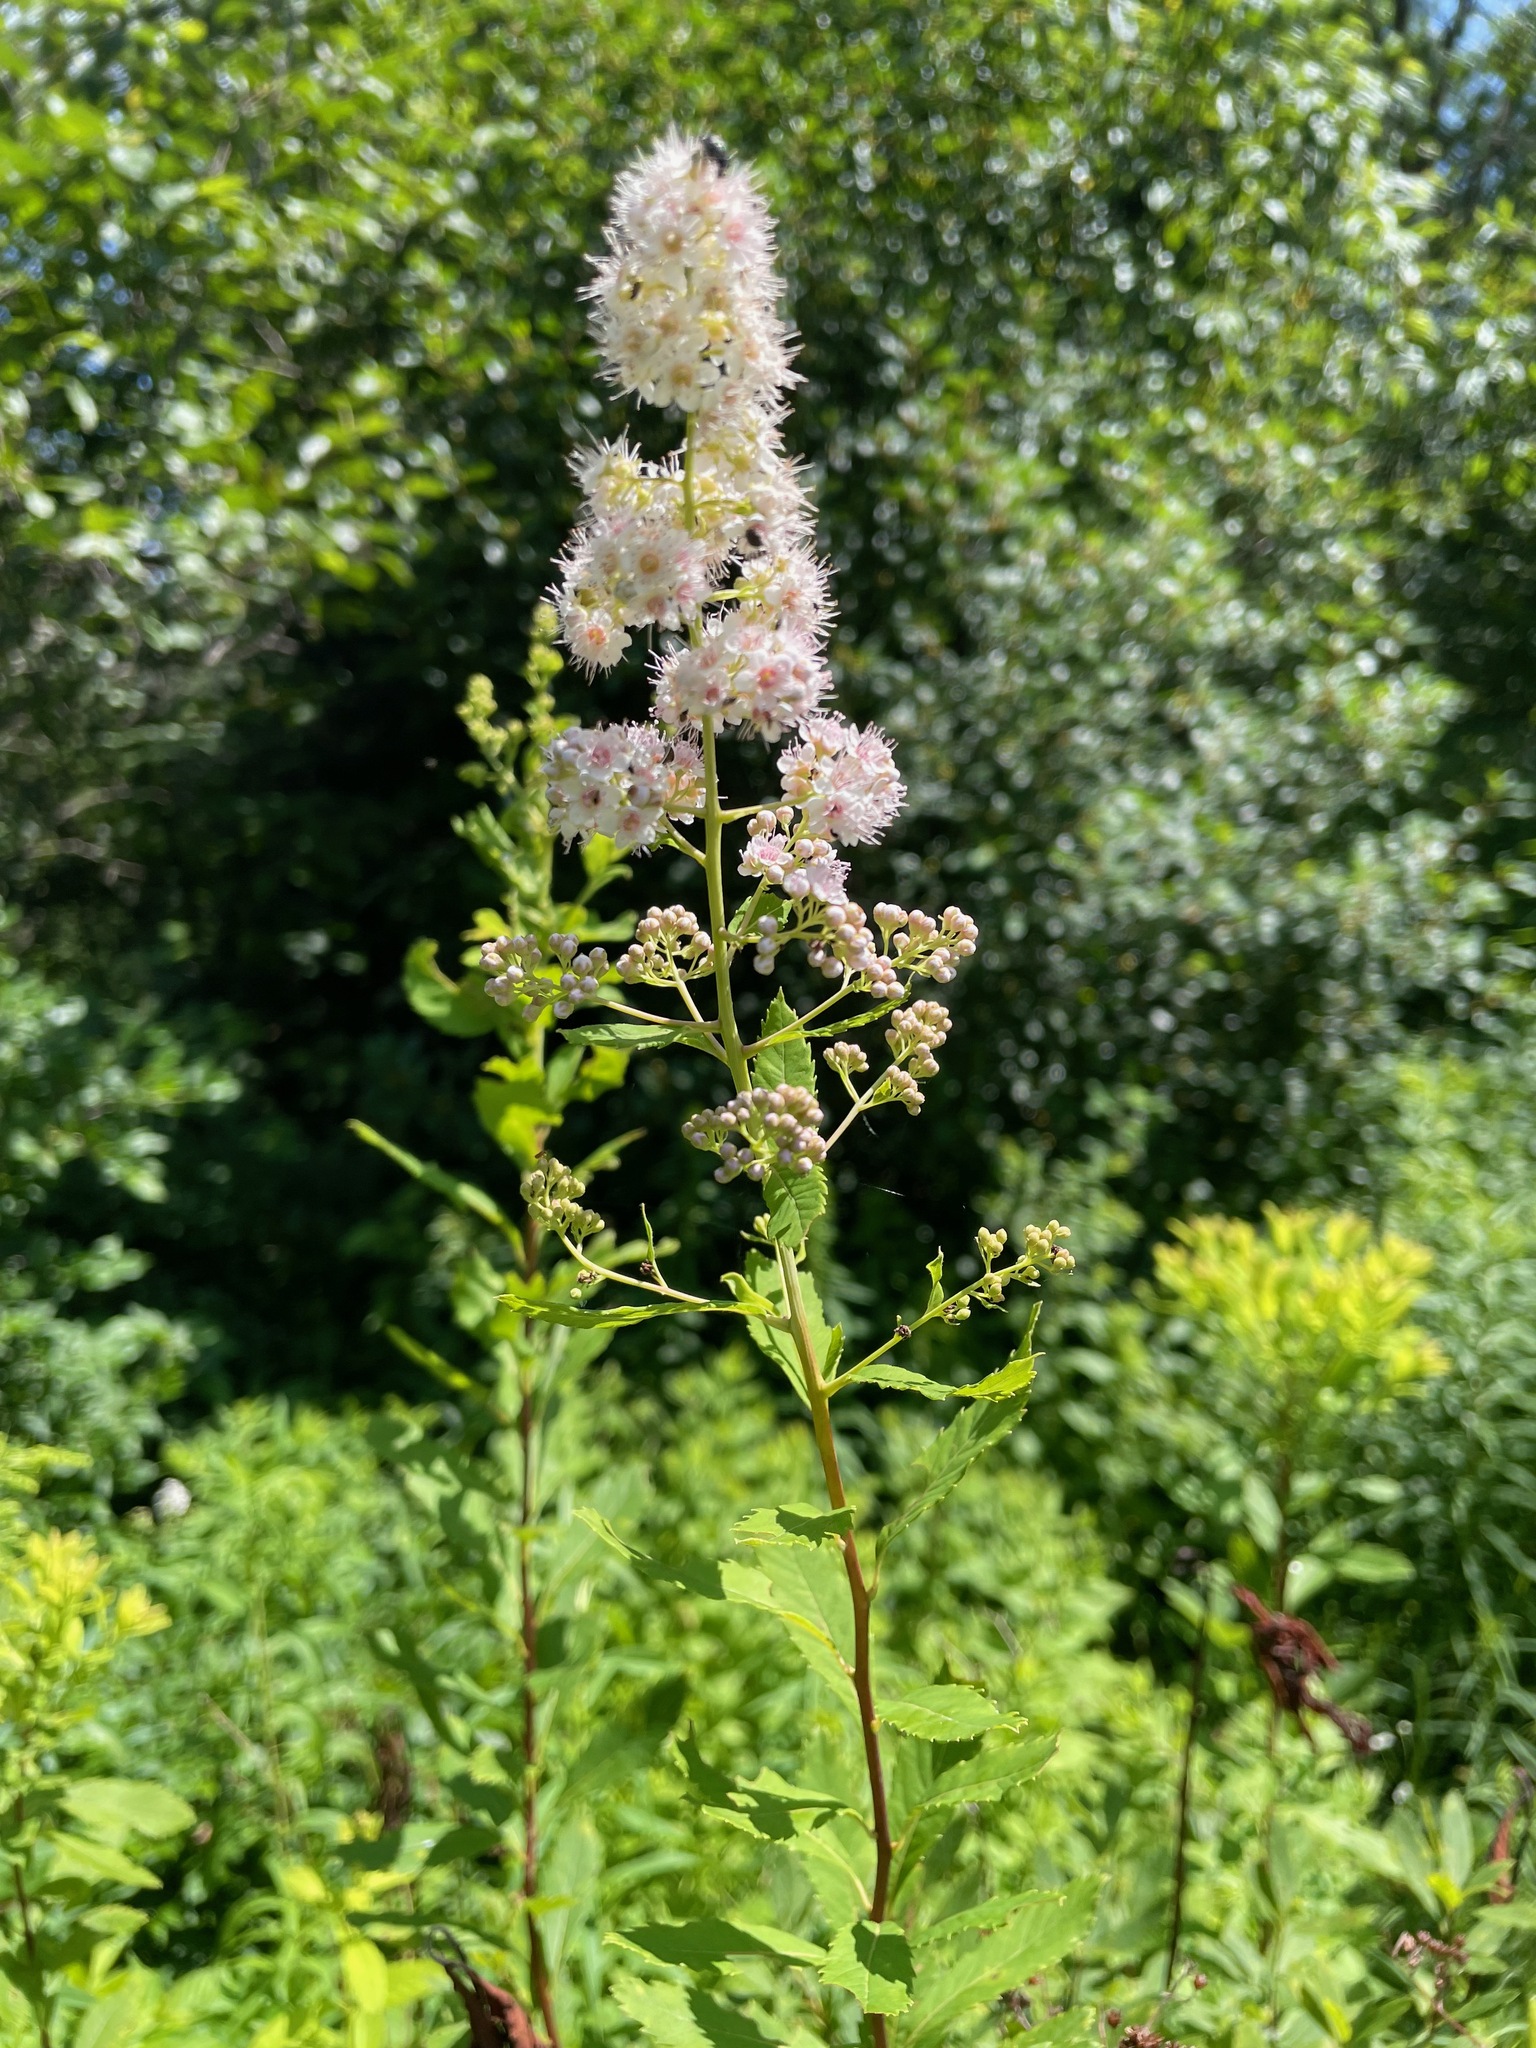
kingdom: Plantae
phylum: Tracheophyta
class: Magnoliopsida
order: Rosales
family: Rosaceae
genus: Spiraea
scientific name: Spiraea alba
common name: Pale bridewort
